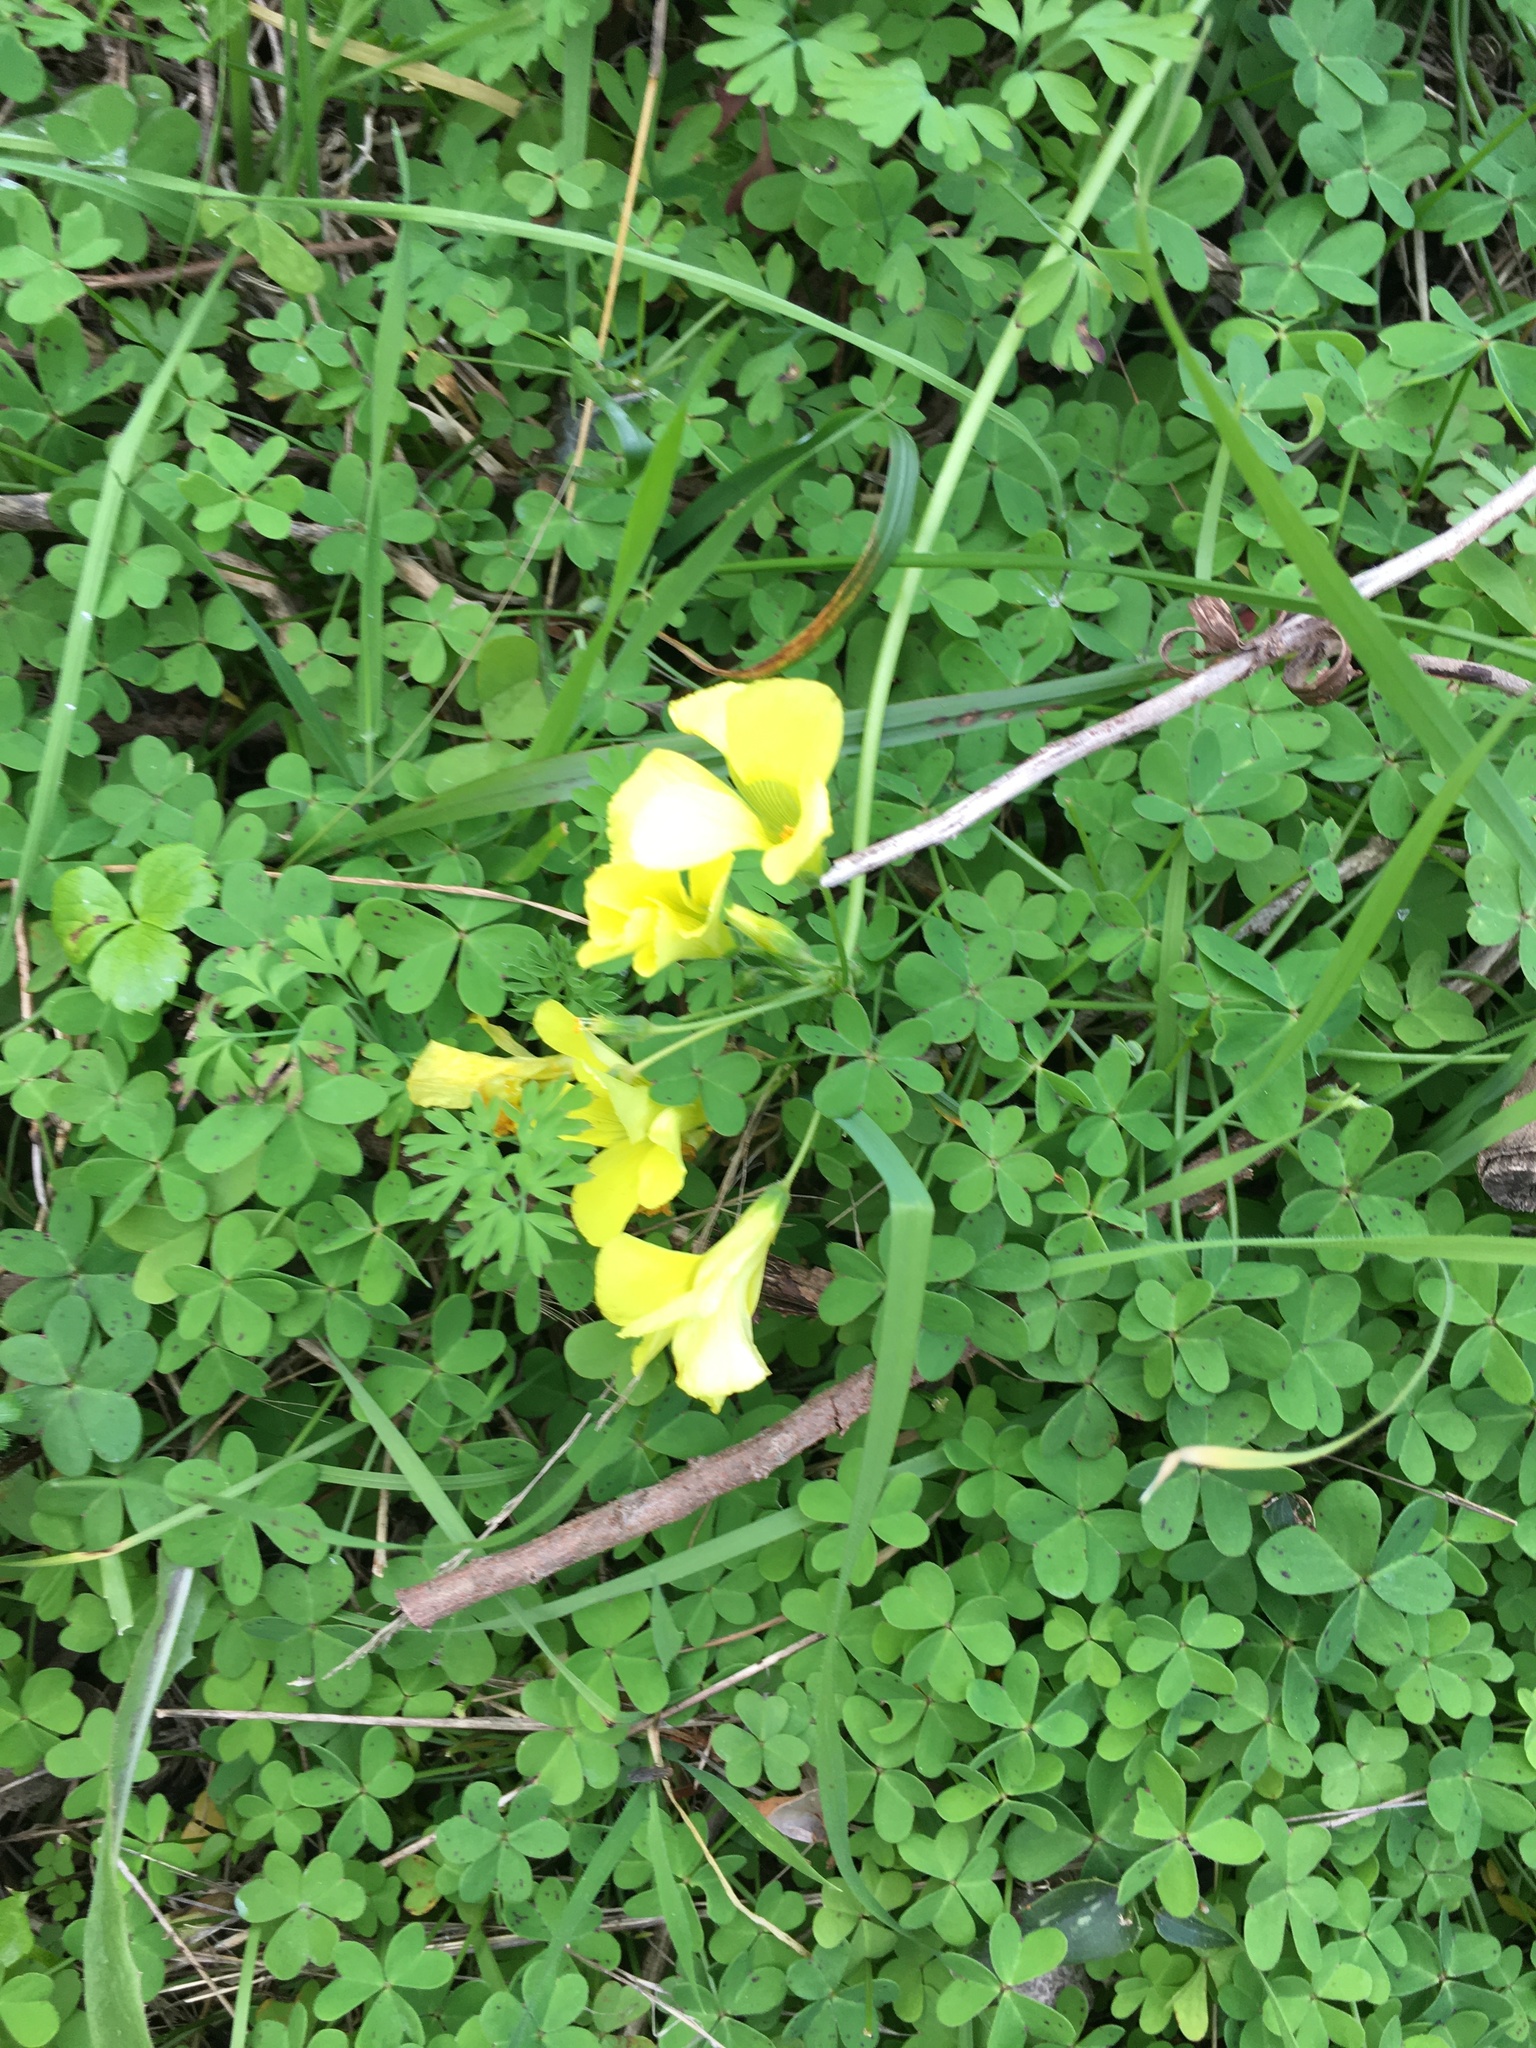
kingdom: Plantae
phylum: Tracheophyta
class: Magnoliopsida
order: Oxalidales
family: Oxalidaceae
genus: Oxalis
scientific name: Oxalis pes-caprae
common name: Bermuda-buttercup
